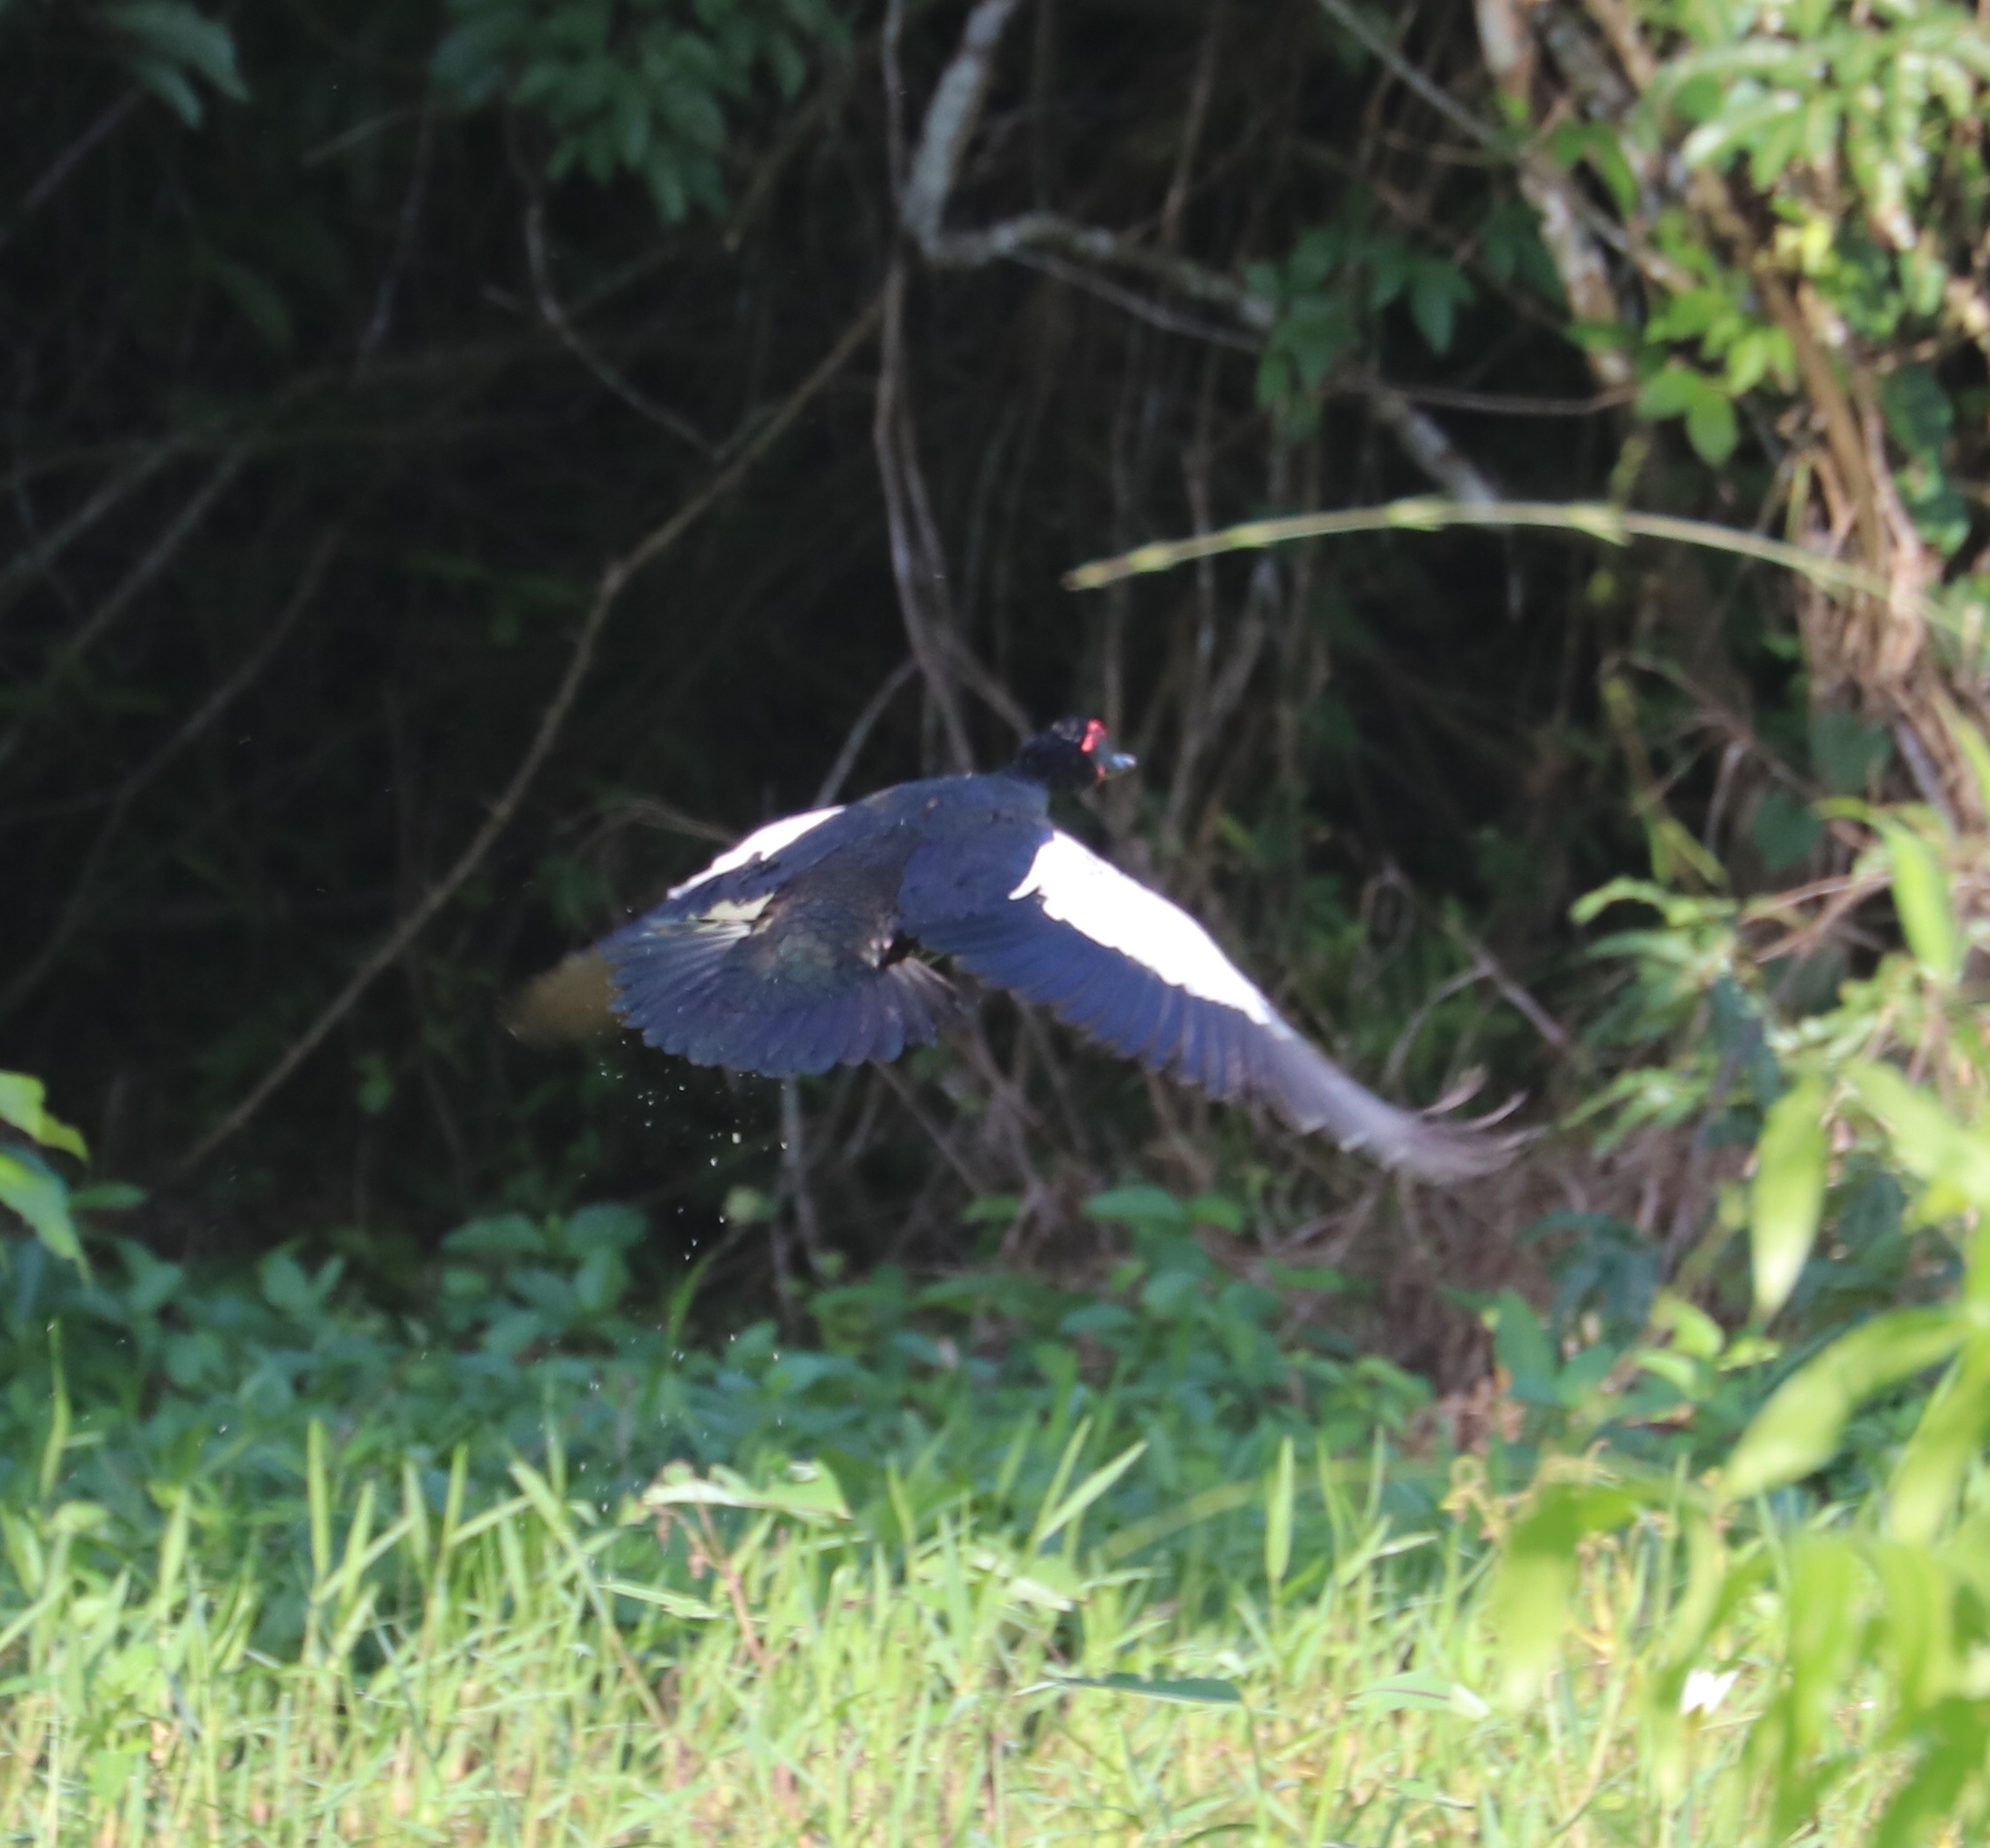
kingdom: Animalia
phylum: Chordata
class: Aves
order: Anseriformes
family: Anatidae
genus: Cairina
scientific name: Cairina moschata
